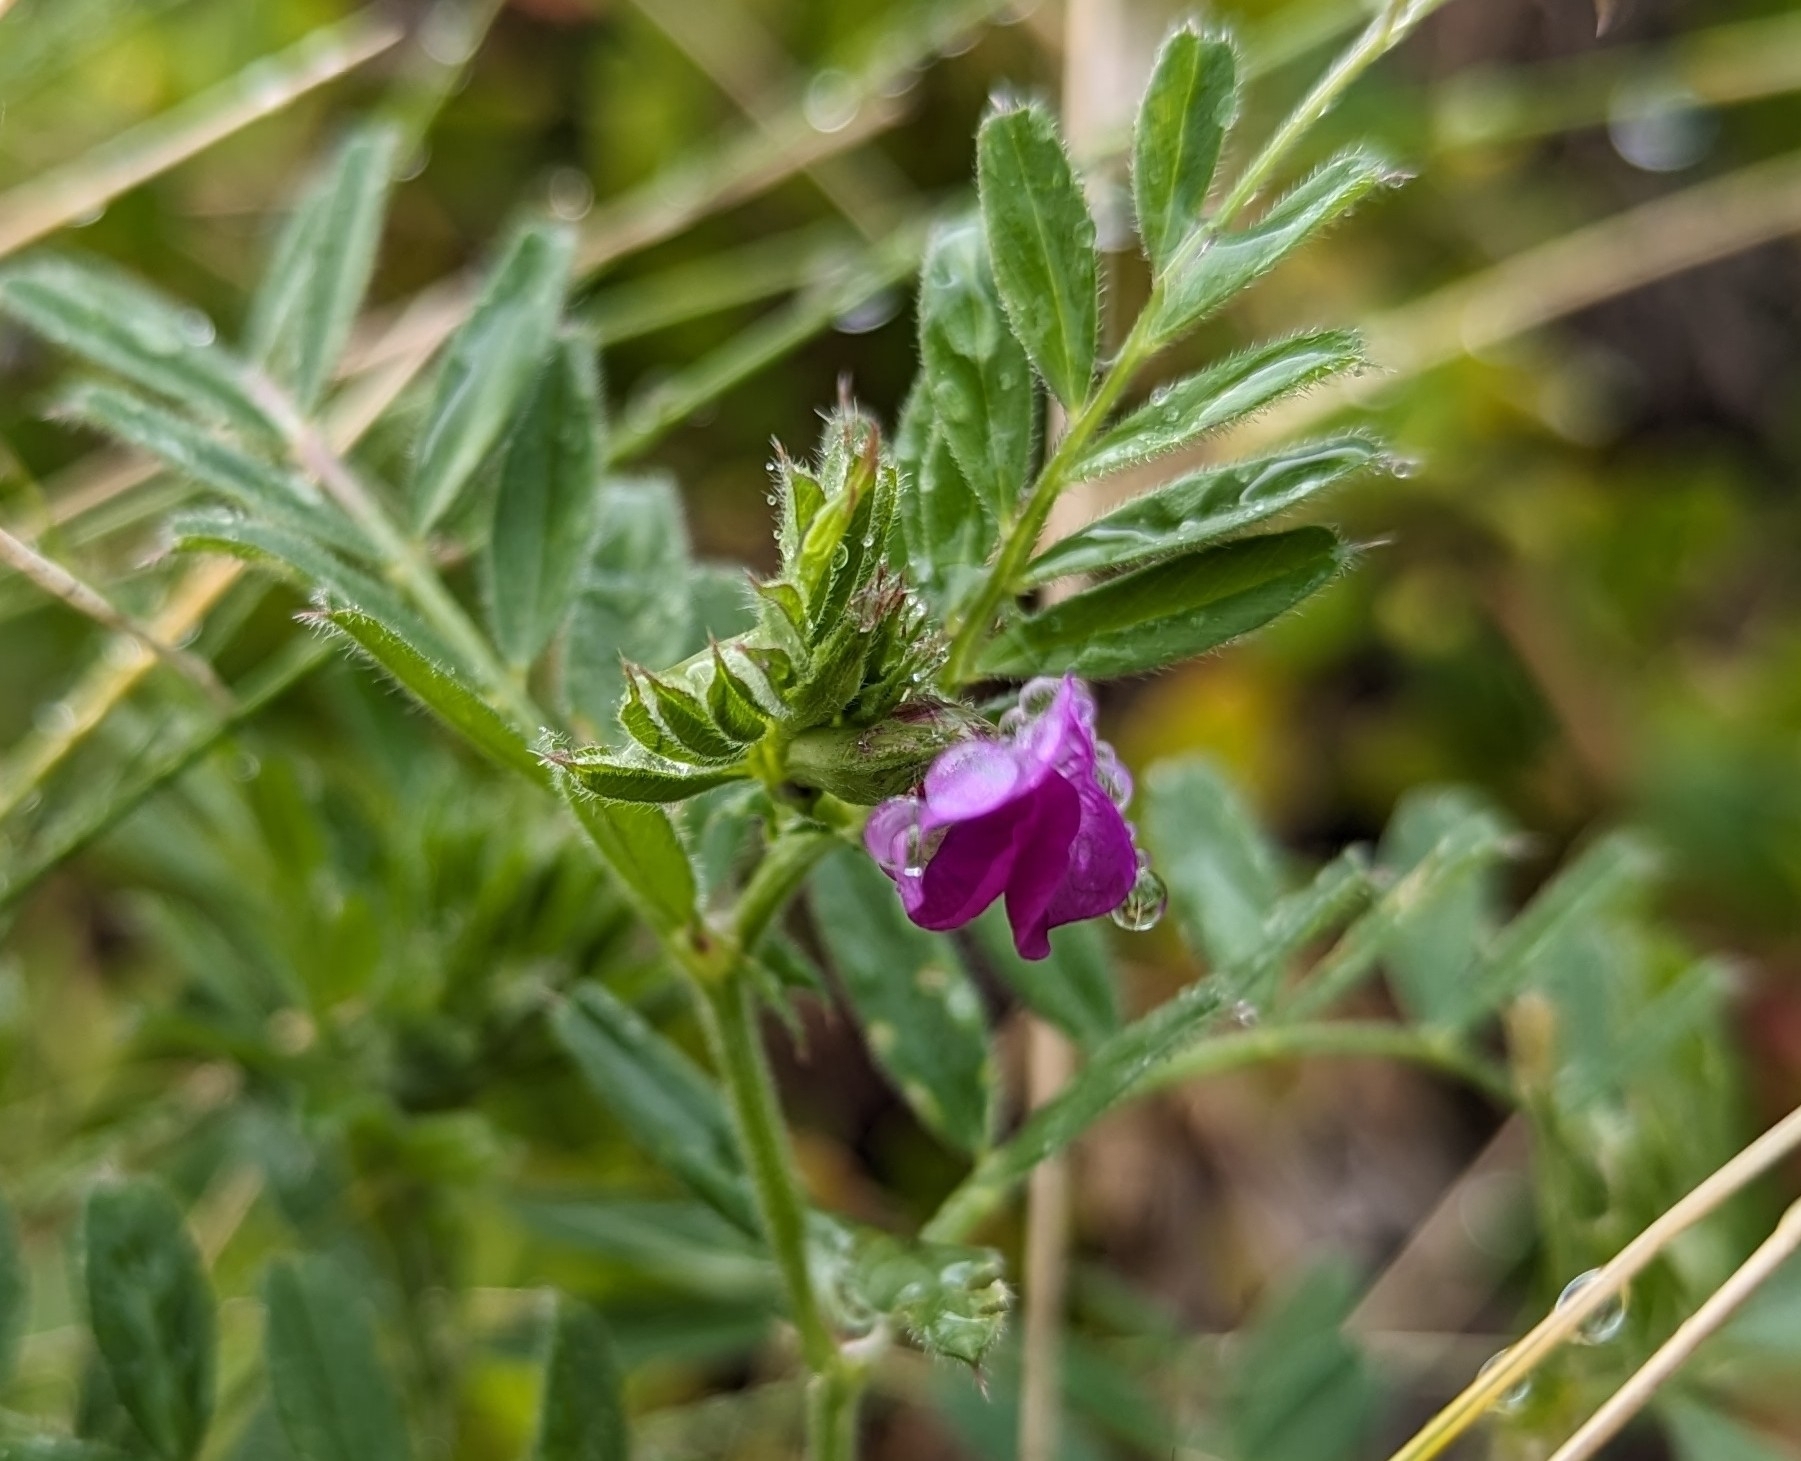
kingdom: Plantae
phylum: Tracheophyta
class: Magnoliopsida
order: Fabales
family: Fabaceae
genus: Vicia
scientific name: Vicia sativa
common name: Garden vetch
